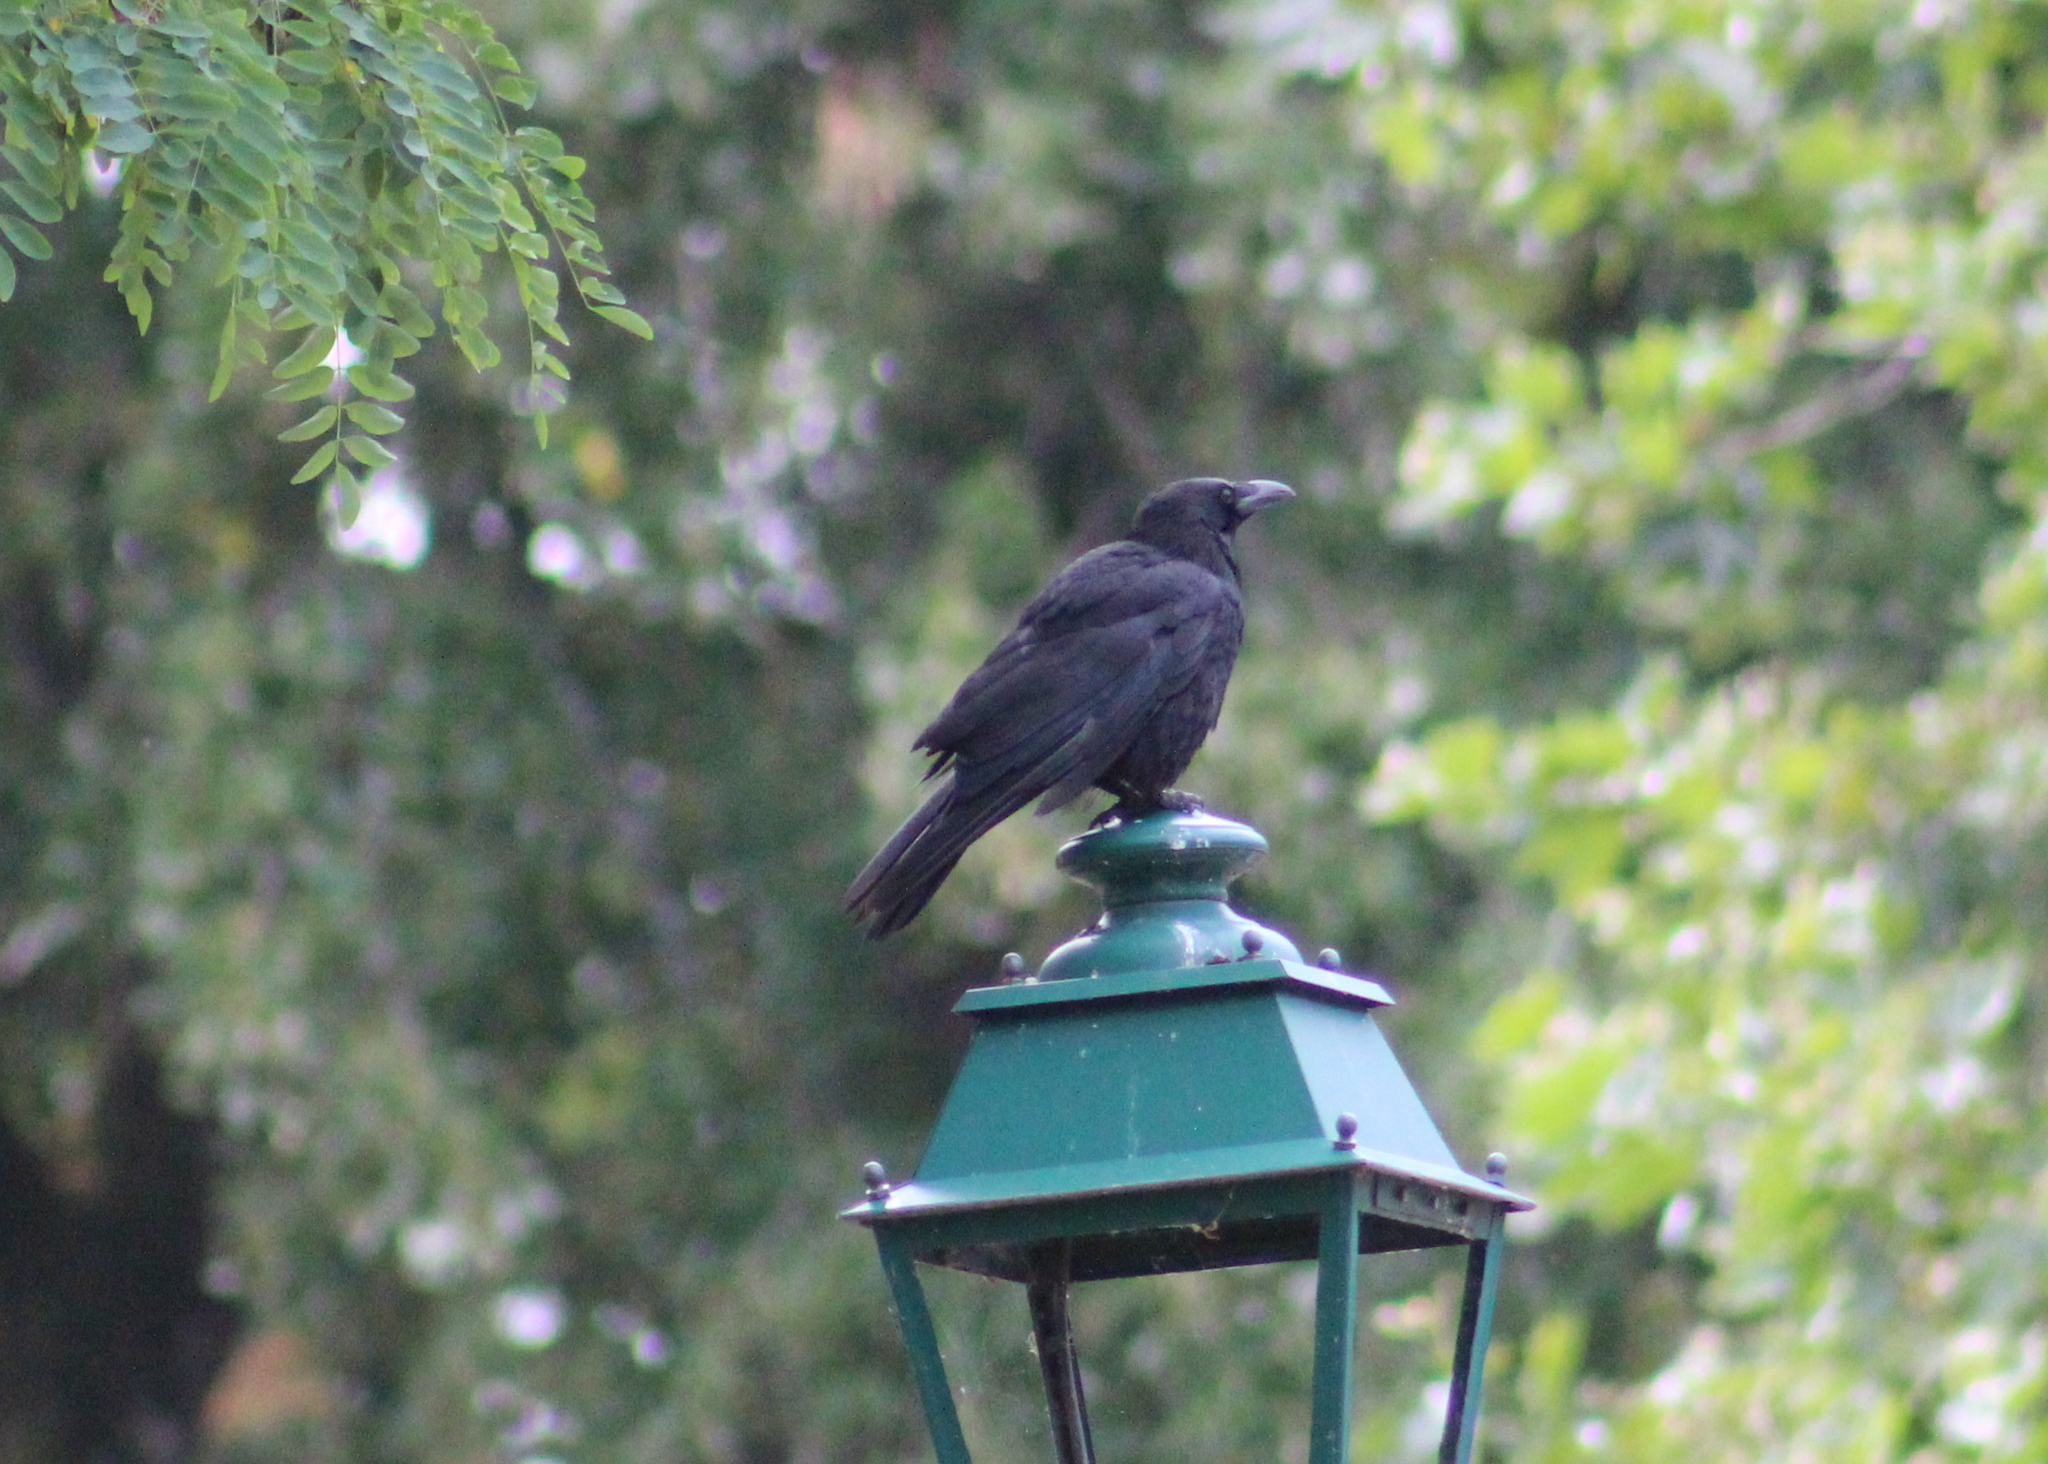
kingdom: Animalia
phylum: Chordata
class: Aves
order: Passeriformes
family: Corvidae
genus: Corvus
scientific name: Corvus corone
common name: Carrion crow
